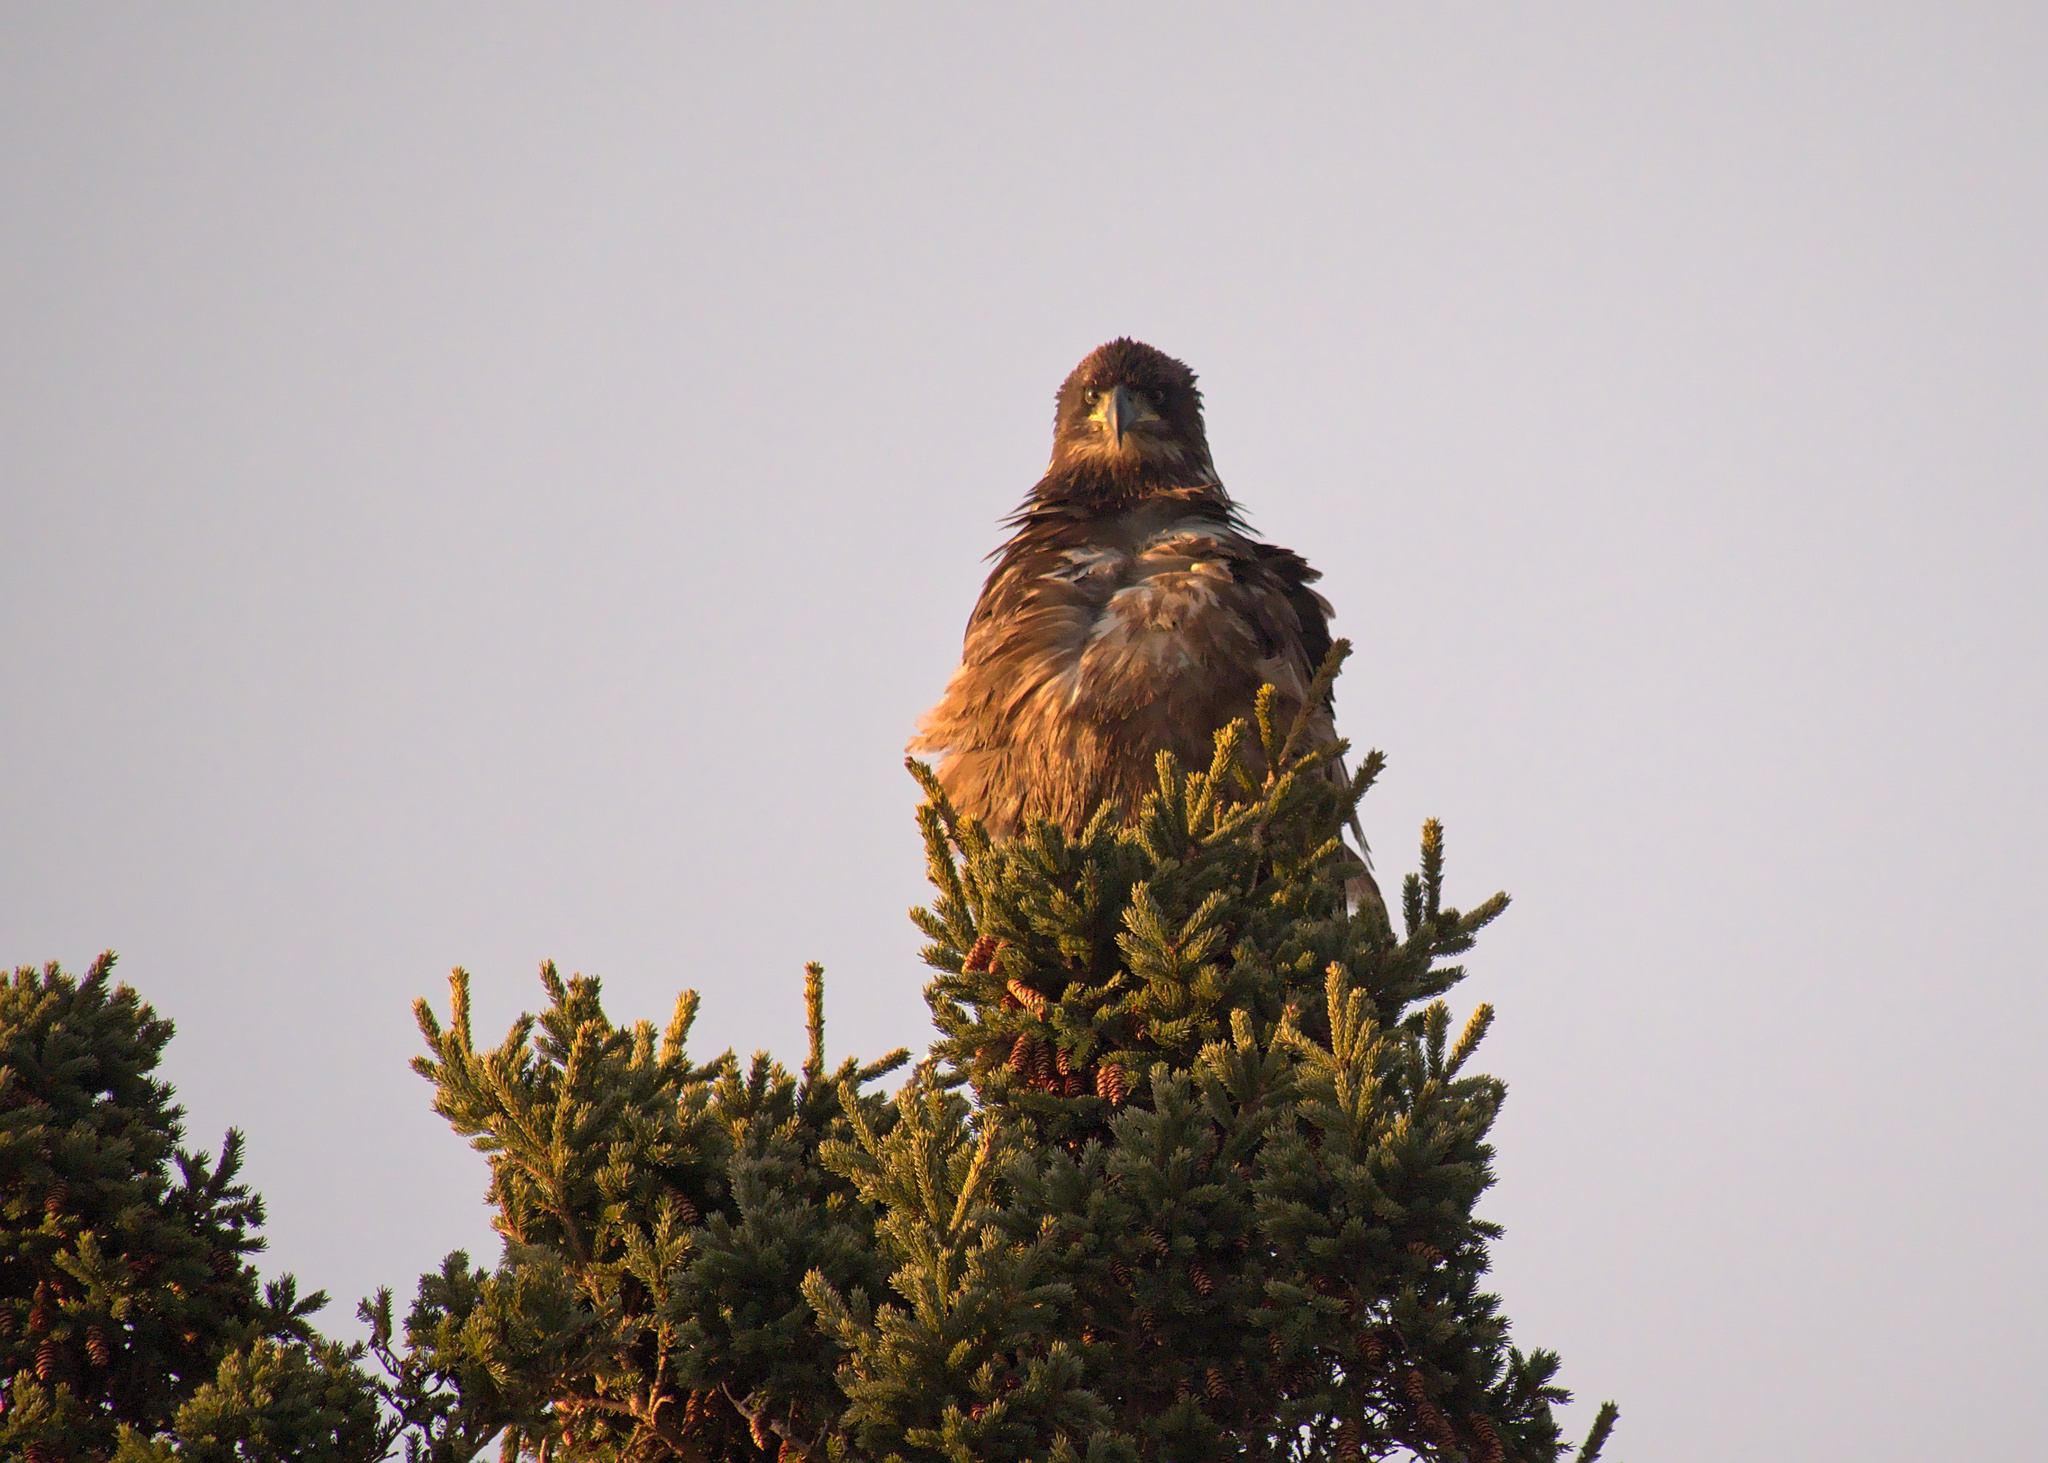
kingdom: Animalia
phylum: Chordata
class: Aves
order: Accipitriformes
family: Accipitridae
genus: Haliaeetus
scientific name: Haliaeetus leucocephalus
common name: Bald eagle
